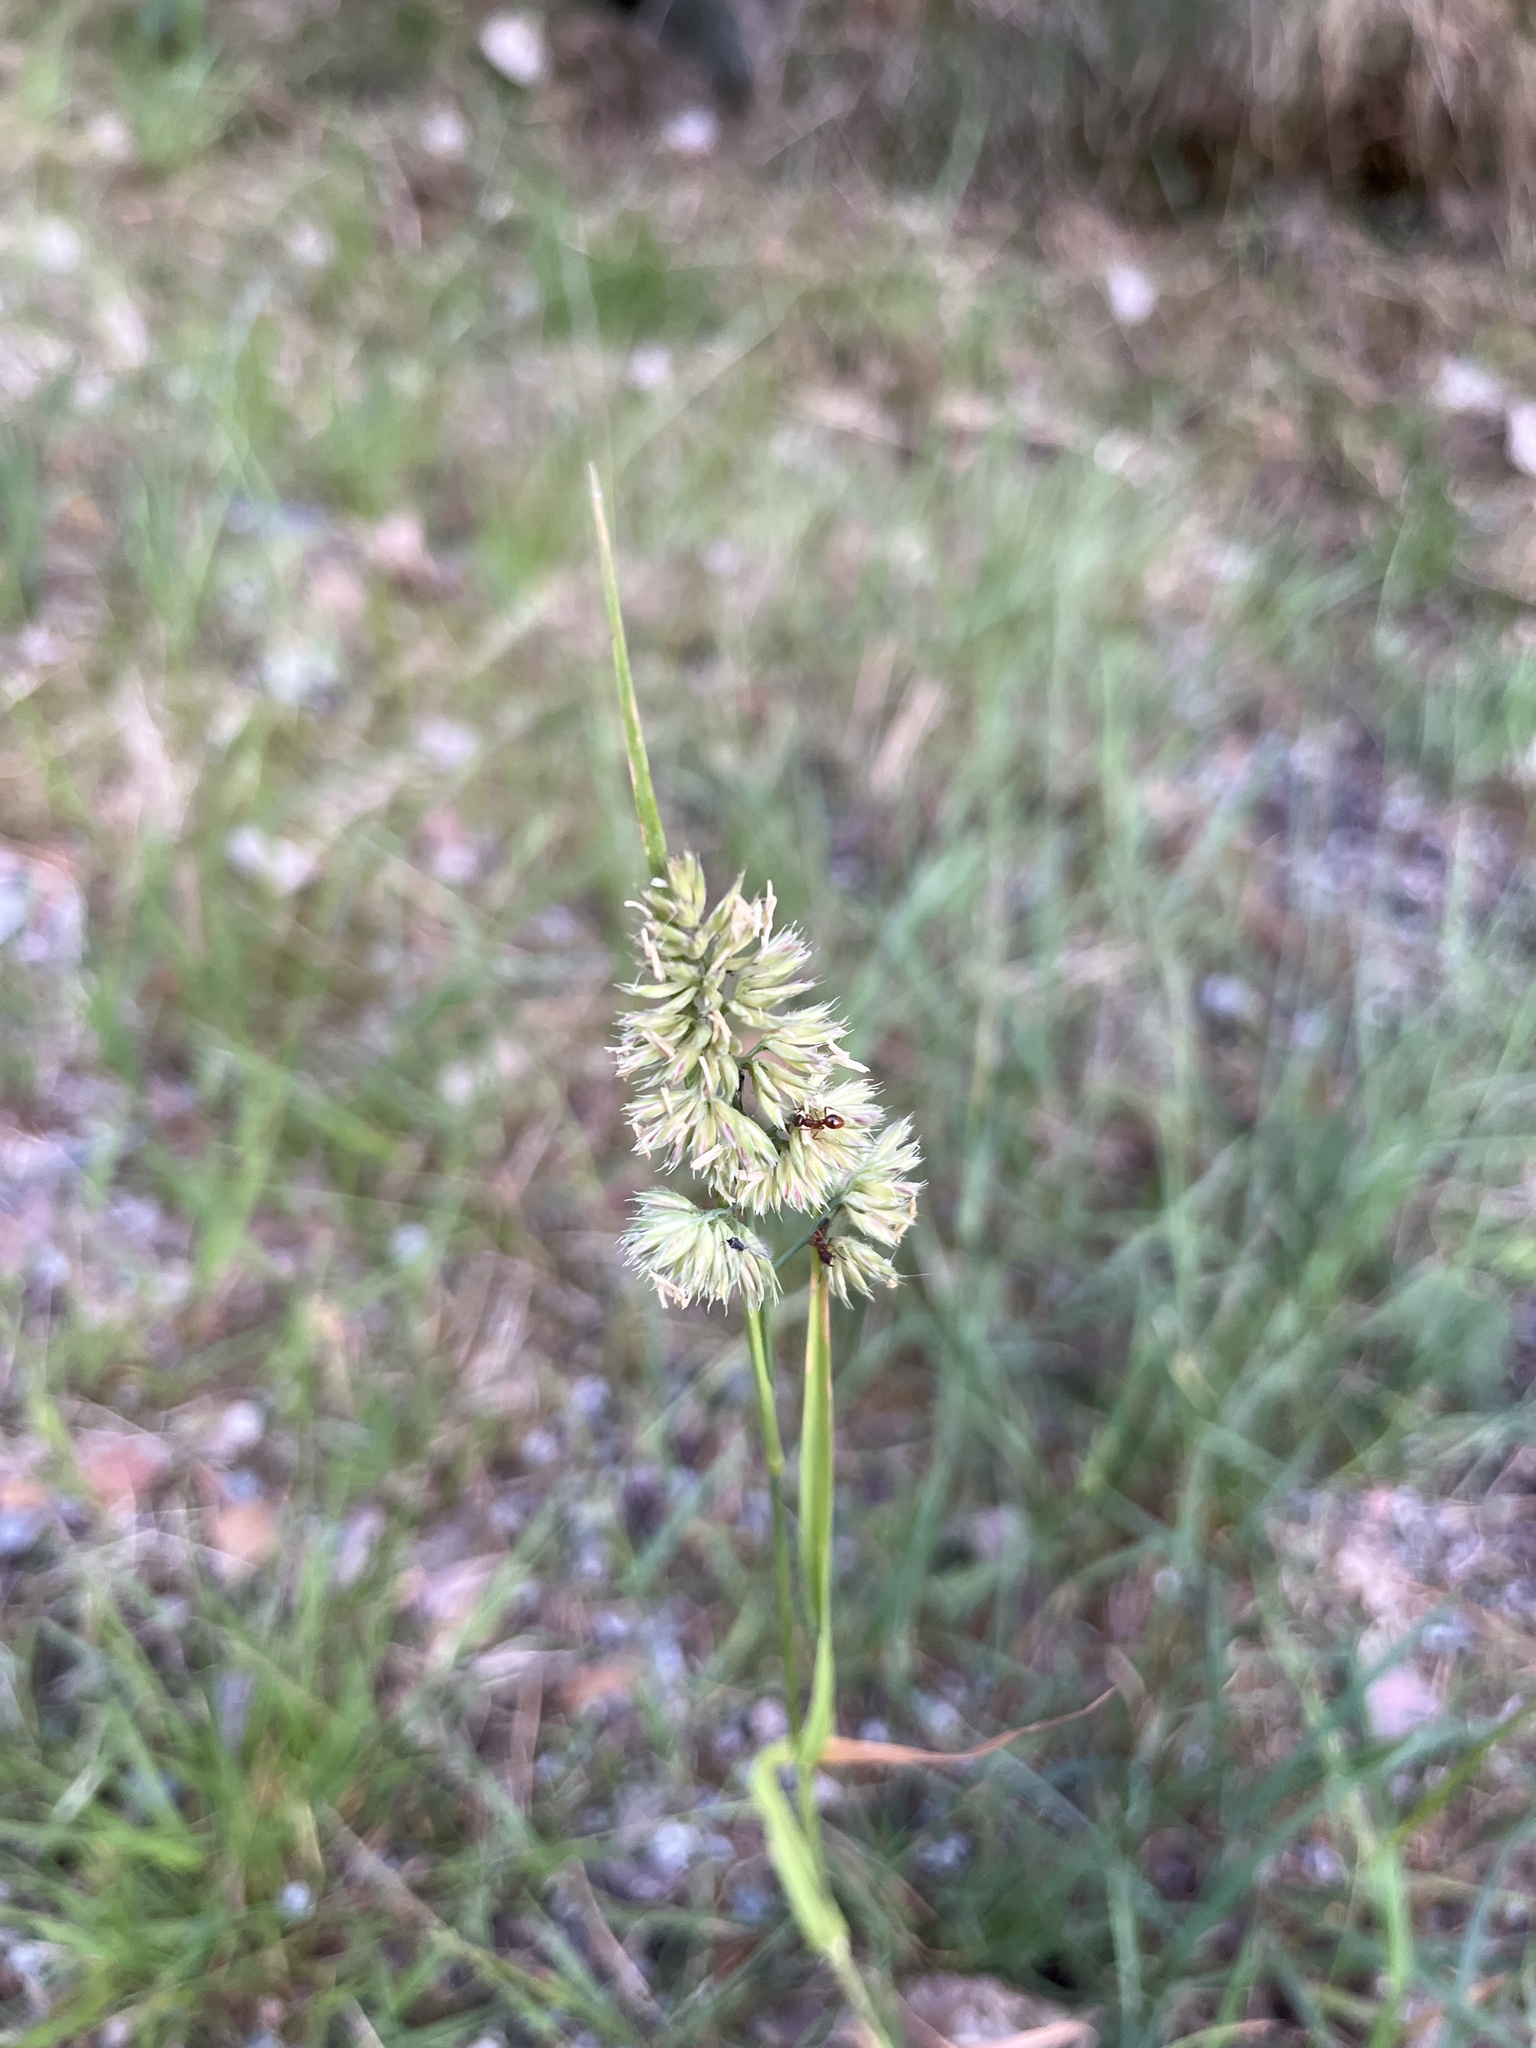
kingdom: Plantae
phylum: Tracheophyta
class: Liliopsida
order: Poales
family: Poaceae
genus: Dactylis
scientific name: Dactylis glomerata
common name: Orchardgrass
